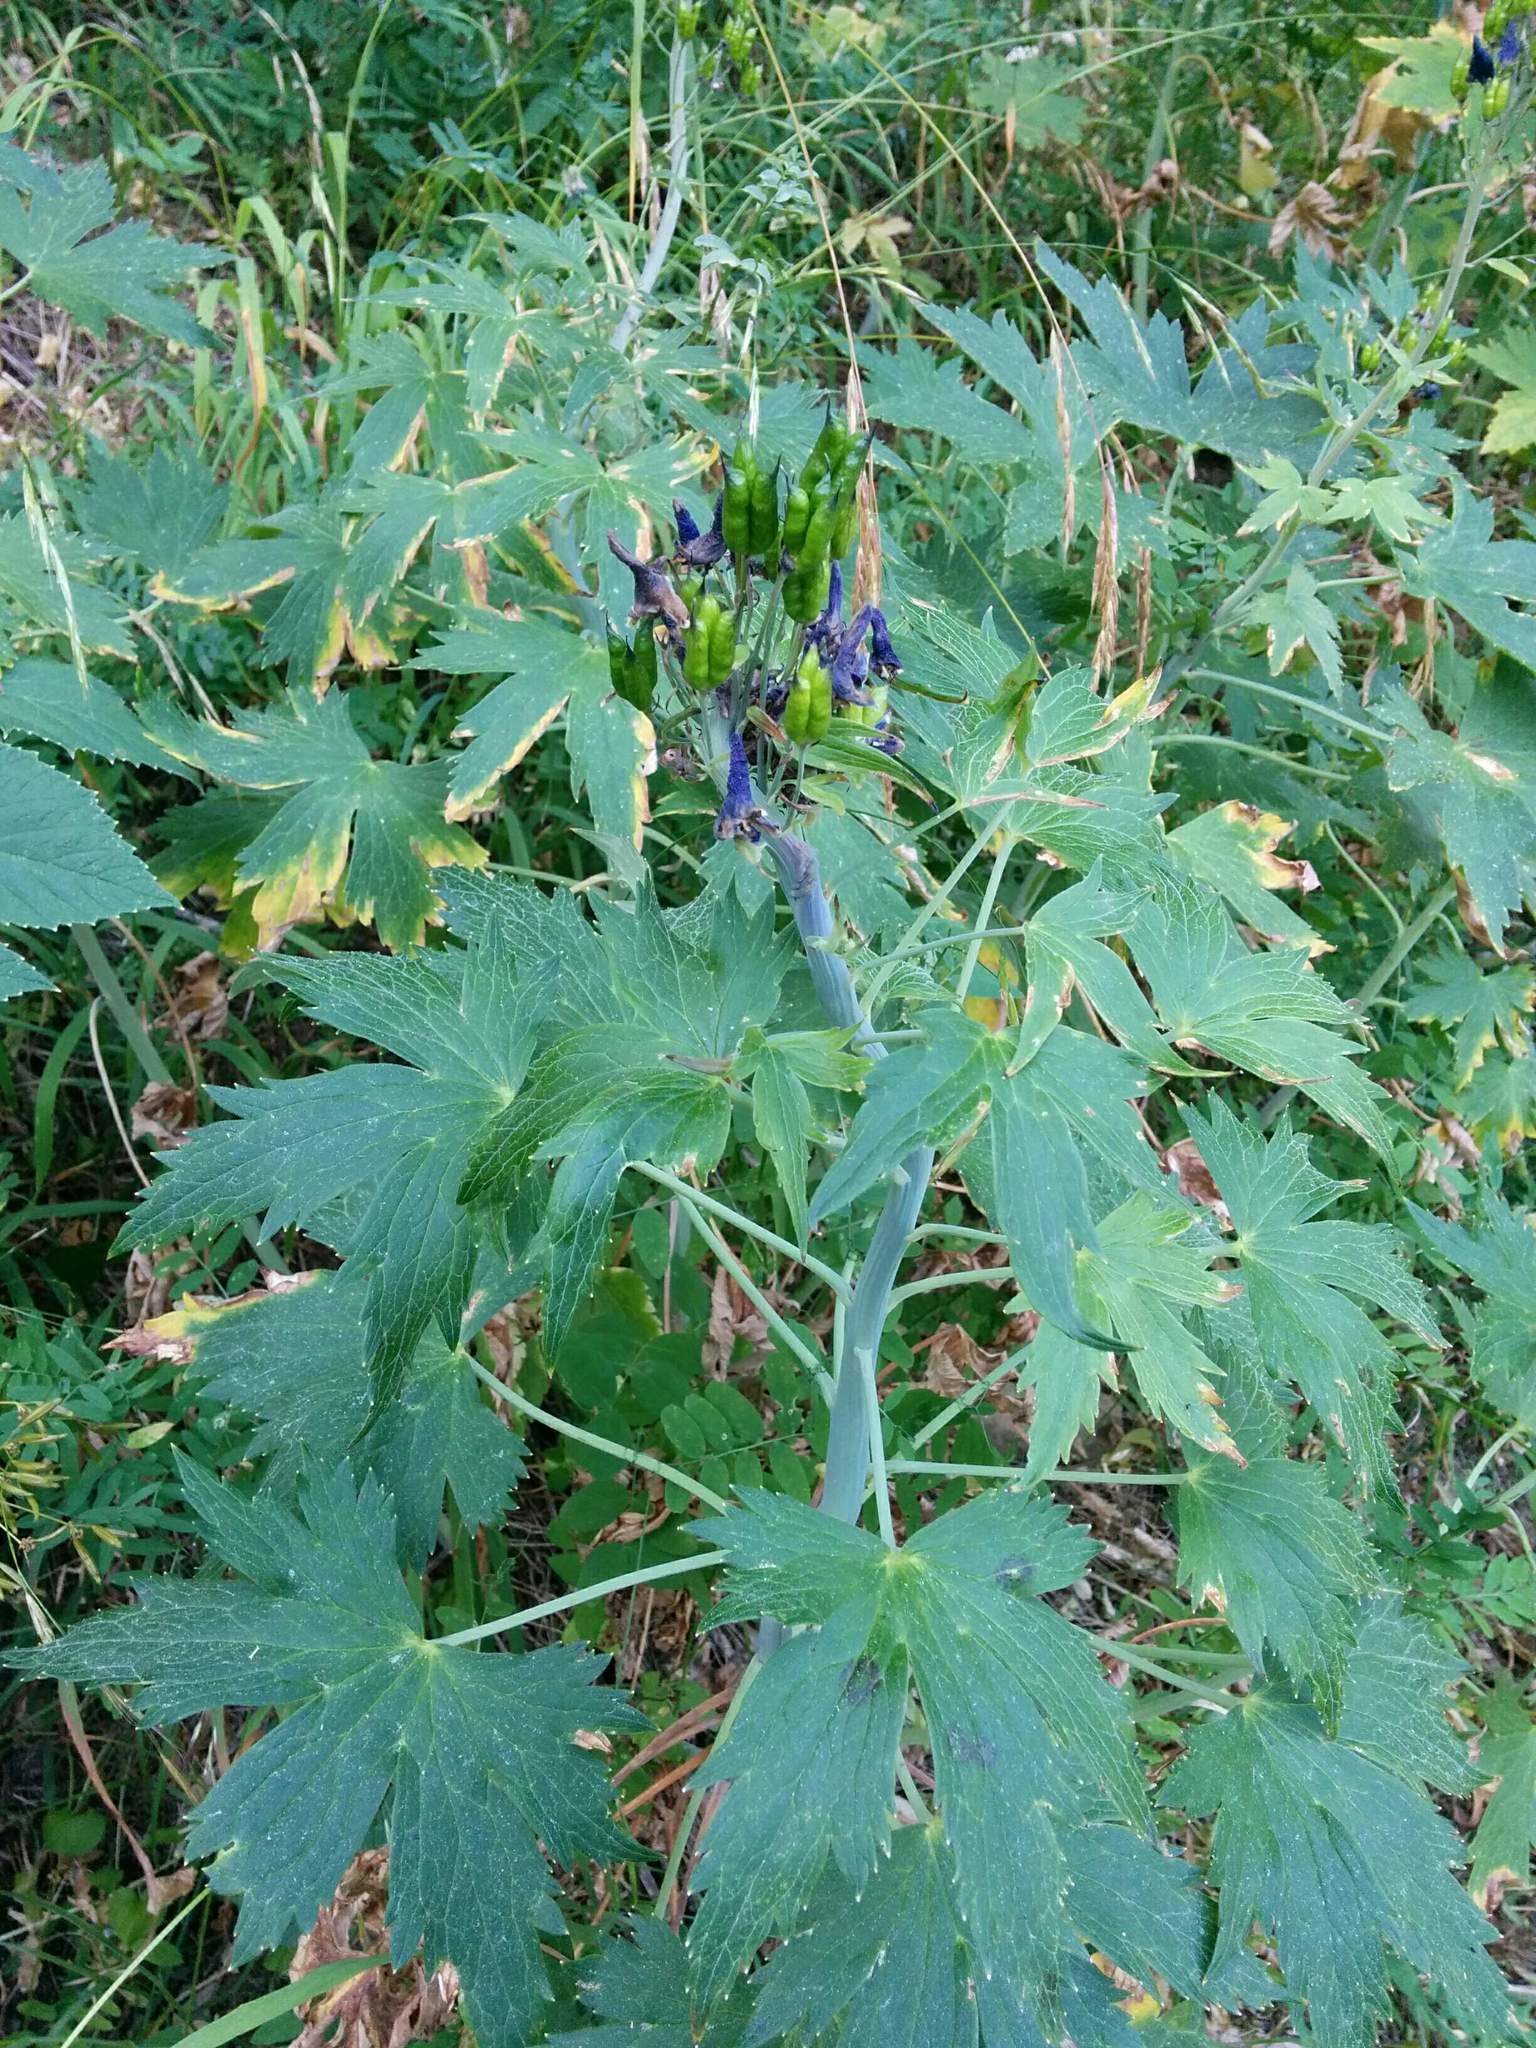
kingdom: Plantae
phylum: Tracheophyta
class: Magnoliopsida
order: Ranunculales
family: Ranunculaceae
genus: Delphinium
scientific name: Delphinium glaucum
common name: Brown's larkspur
